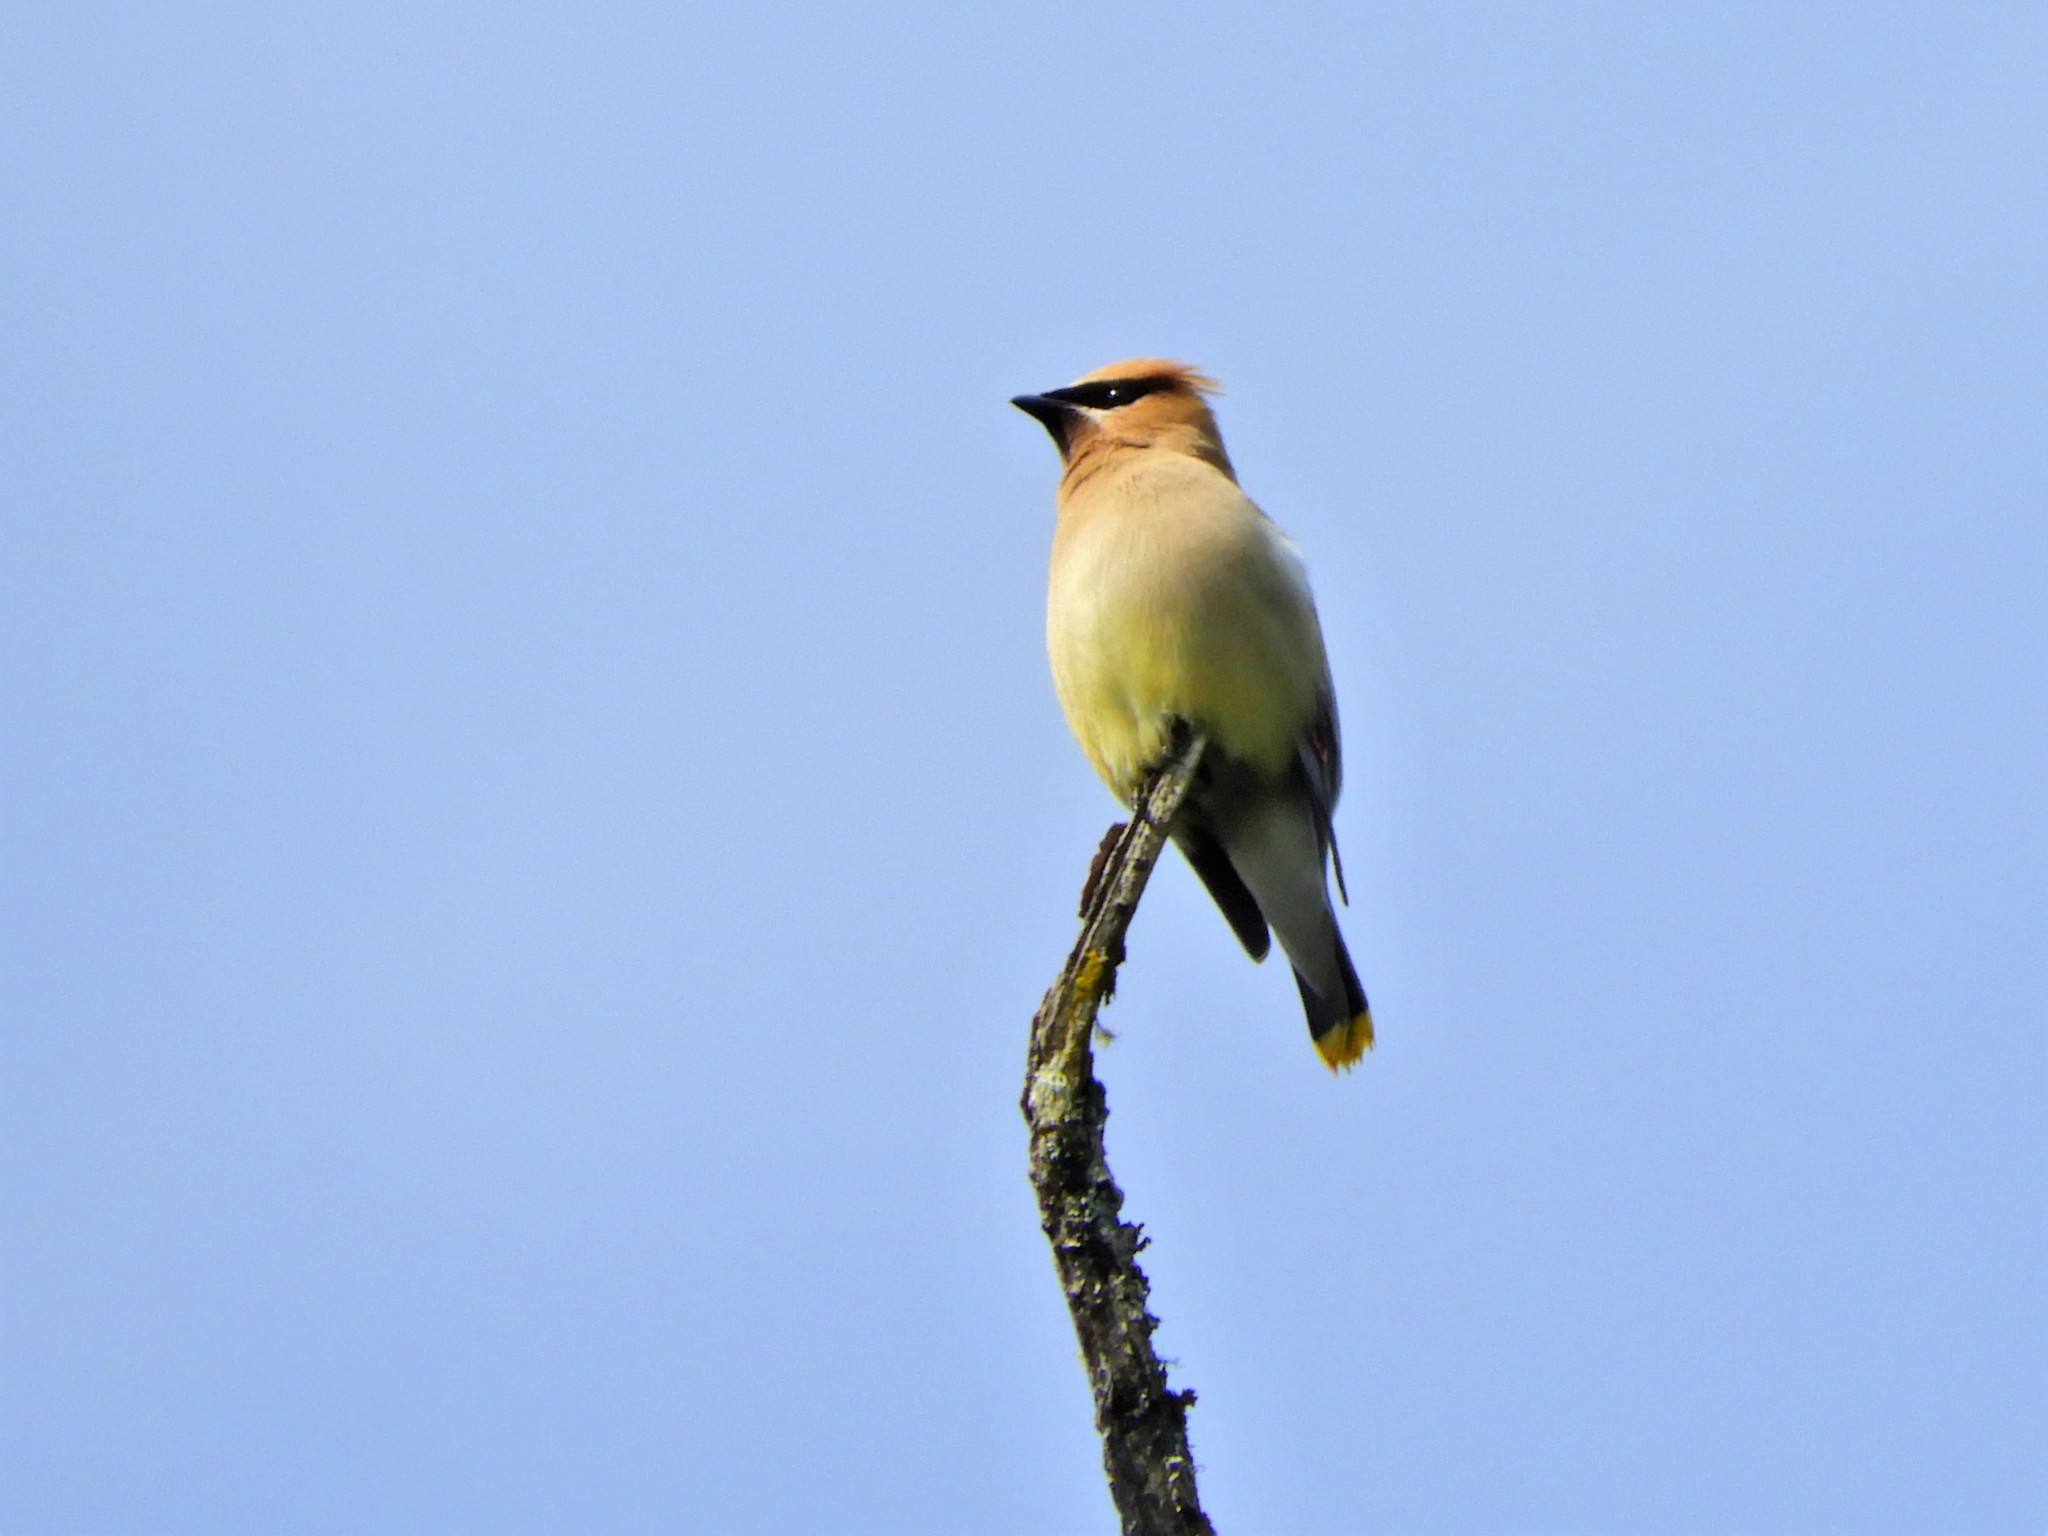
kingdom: Animalia
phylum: Chordata
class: Aves
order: Passeriformes
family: Bombycillidae
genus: Bombycilla
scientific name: Bombycilla cedrorum
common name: Cedar waxwing
